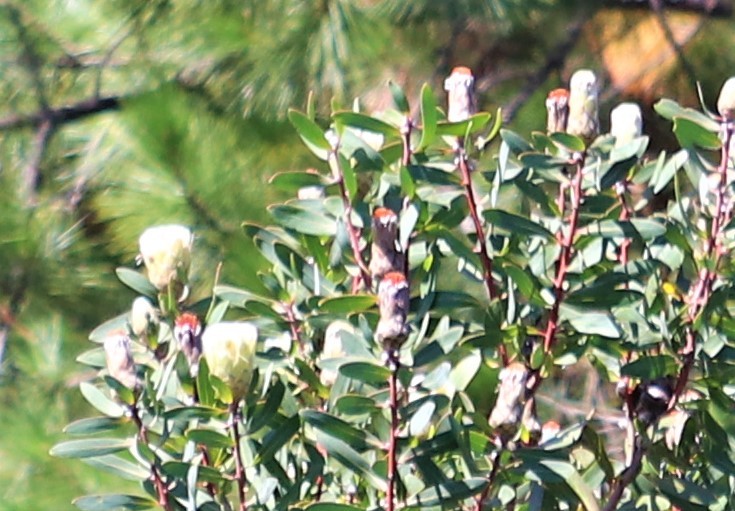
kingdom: Plantae
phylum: Tracheophyta
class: Magnoliopsida
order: Proteales
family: Proteaceae
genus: Protea
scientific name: Protea mundii
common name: Forest sugarbush
